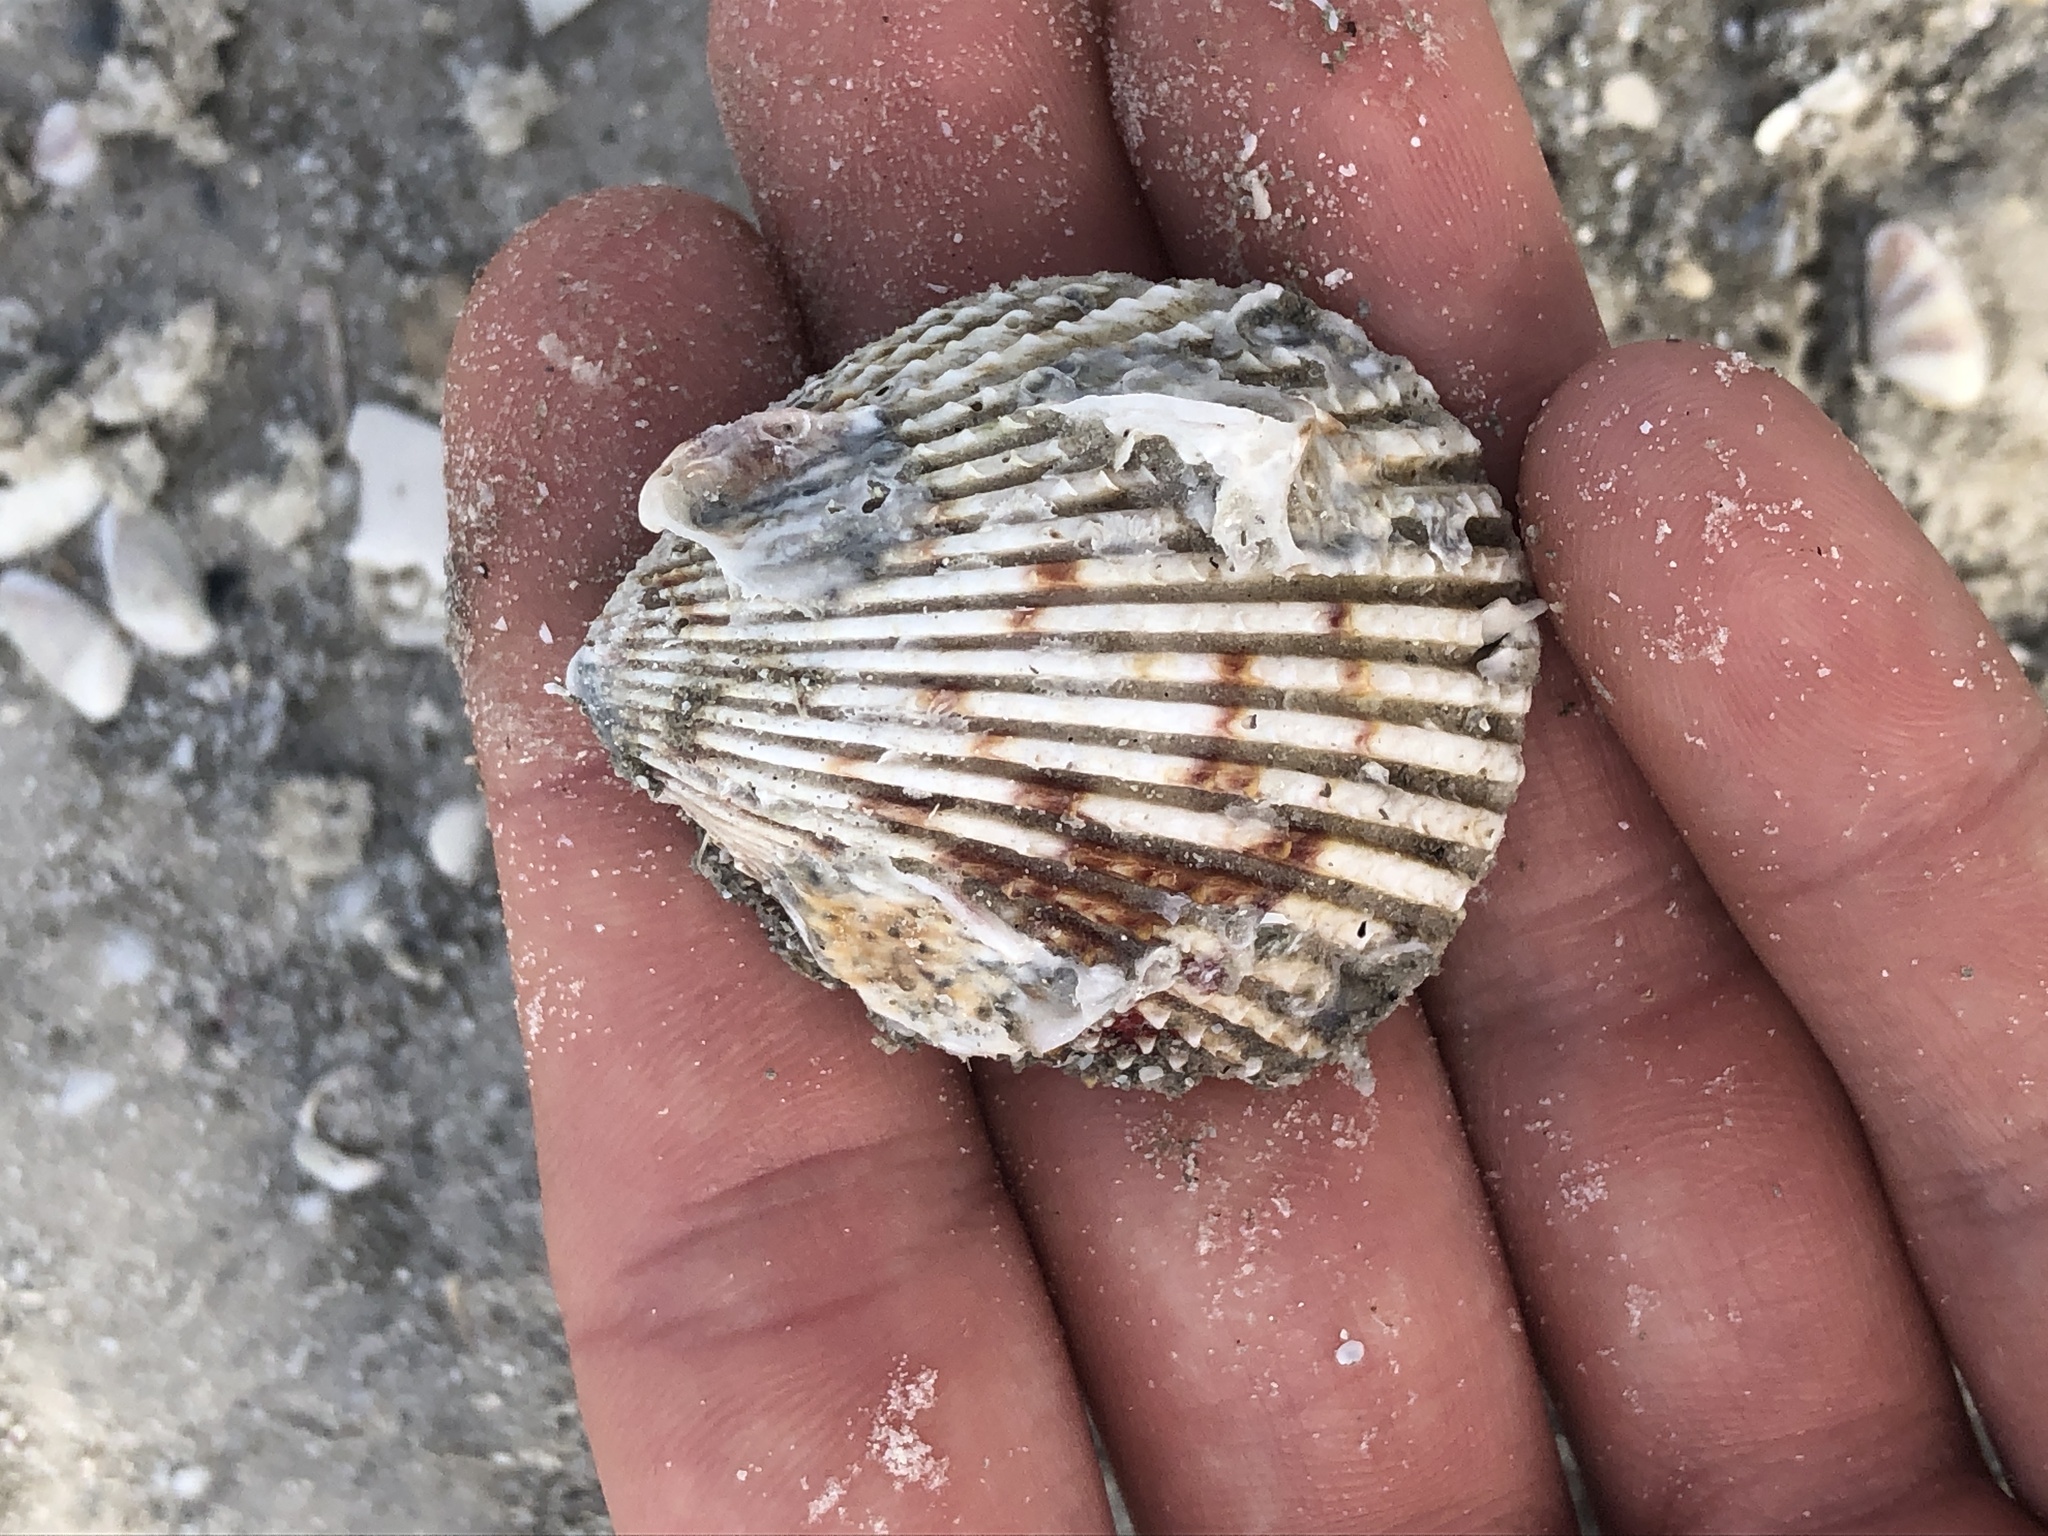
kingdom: Animalia
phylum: Mollusca
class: Bivalvia
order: Cardiida
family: Cardiidae
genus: Trachycardium
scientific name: Trachycardium egmontianum
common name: Florida pricklycockle
